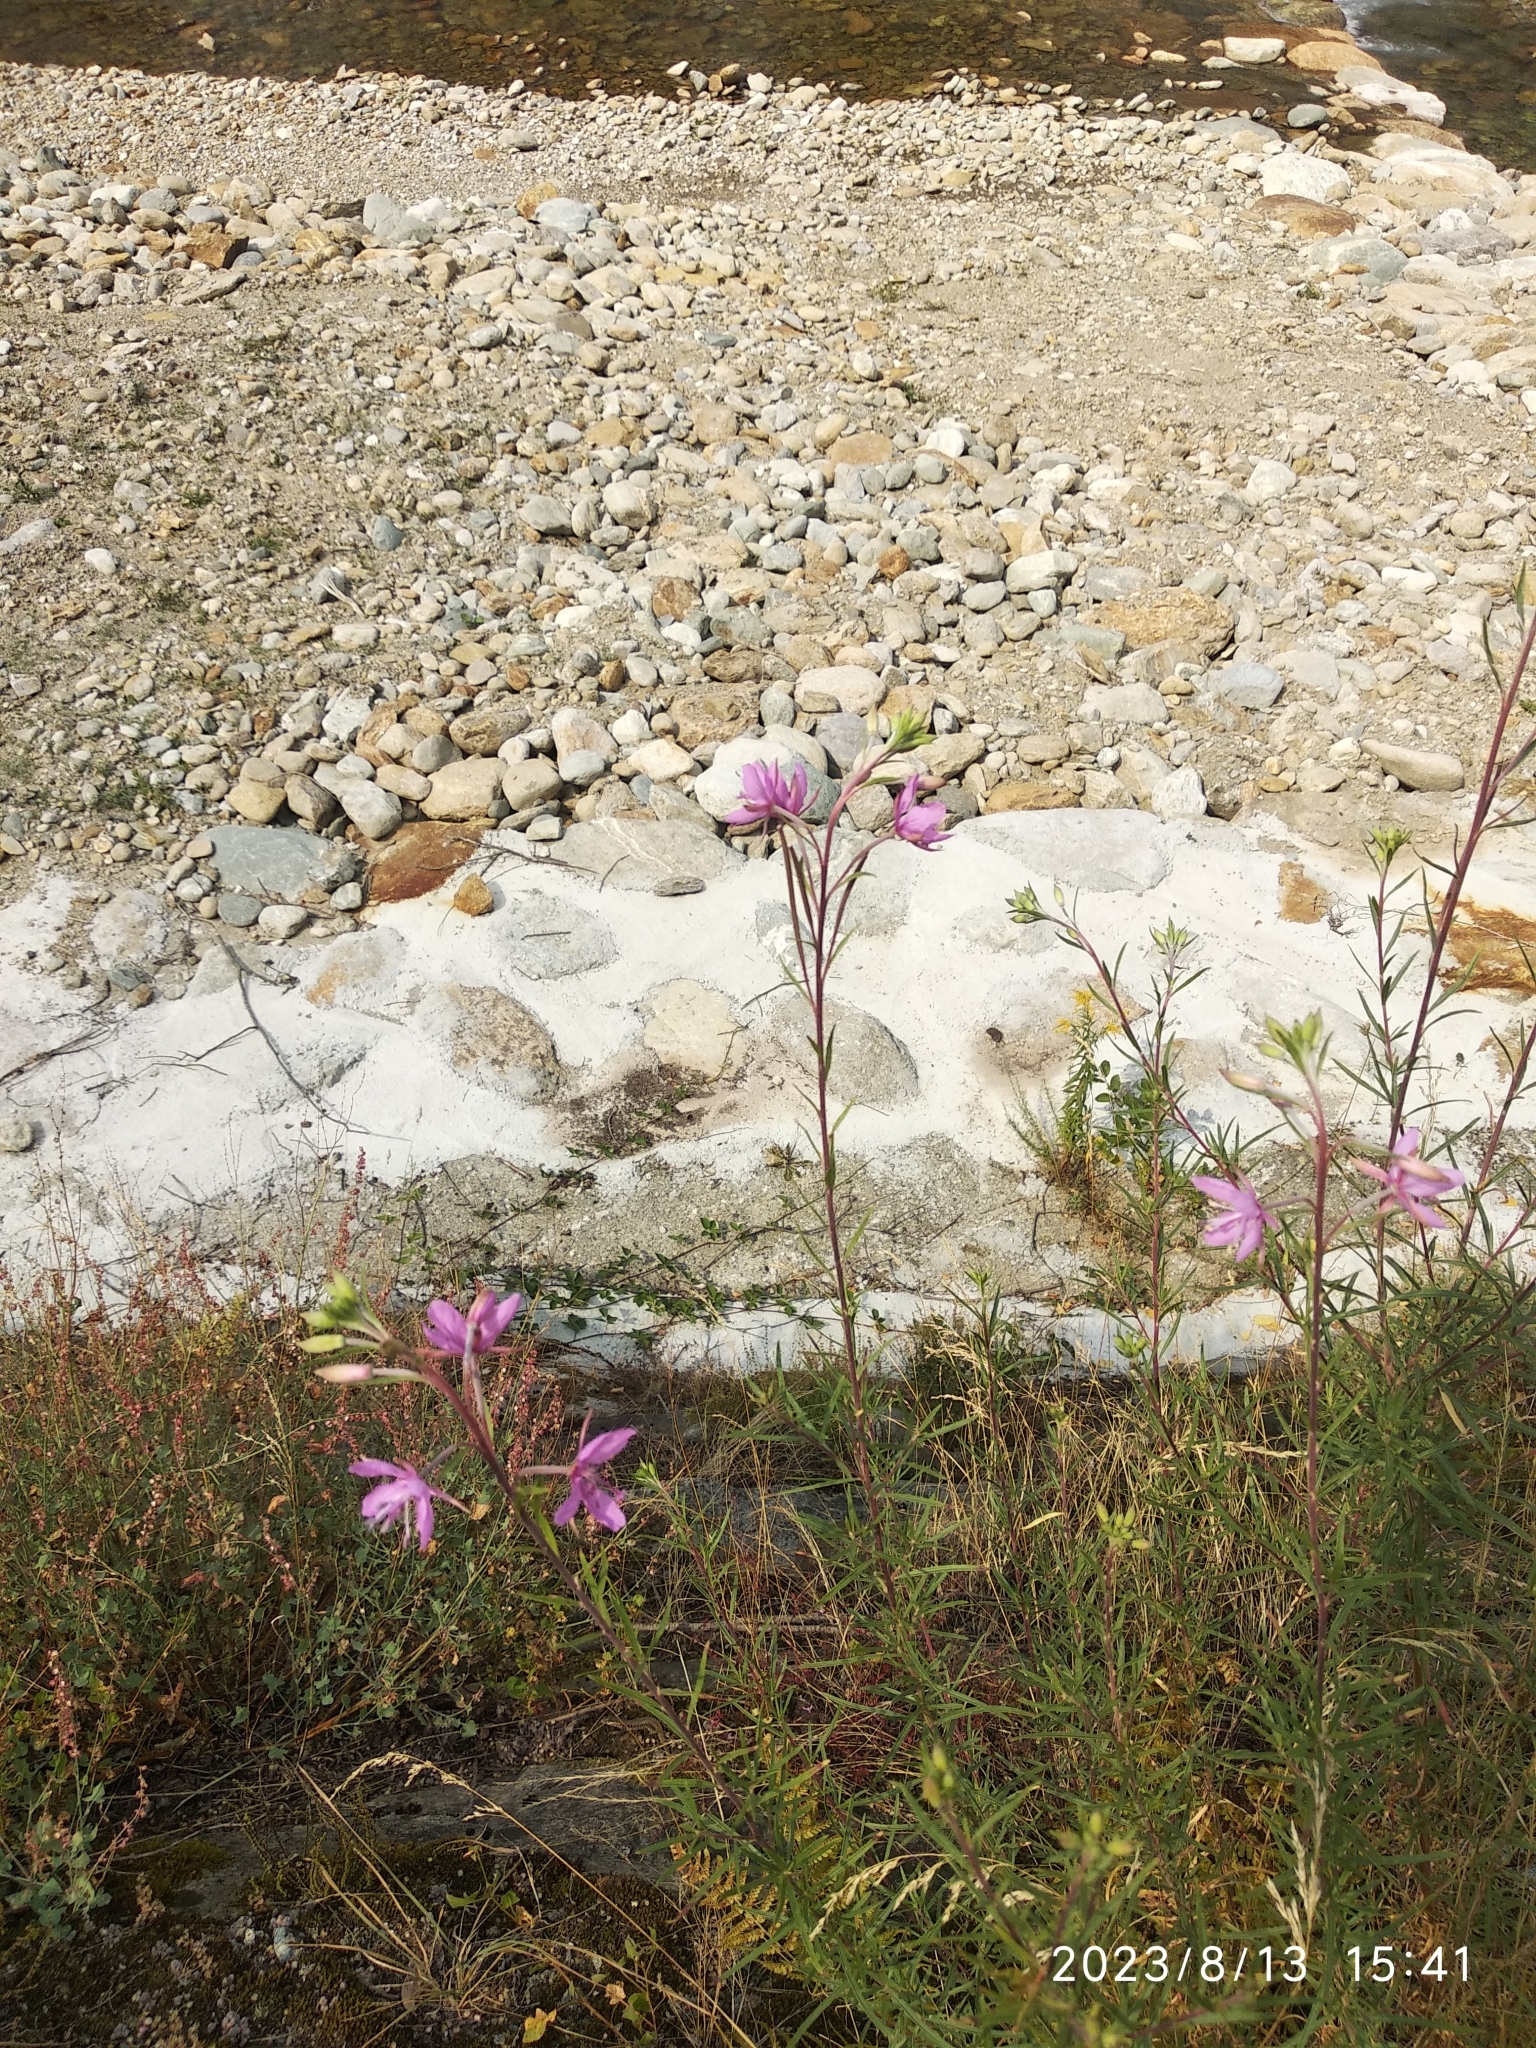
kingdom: Plantae
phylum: Tracheophyta
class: Magnoliopsida
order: Myrtales
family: Onagraceae
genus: Chamaenerion
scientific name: Chamaenerion angustifolium
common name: Fireweed
